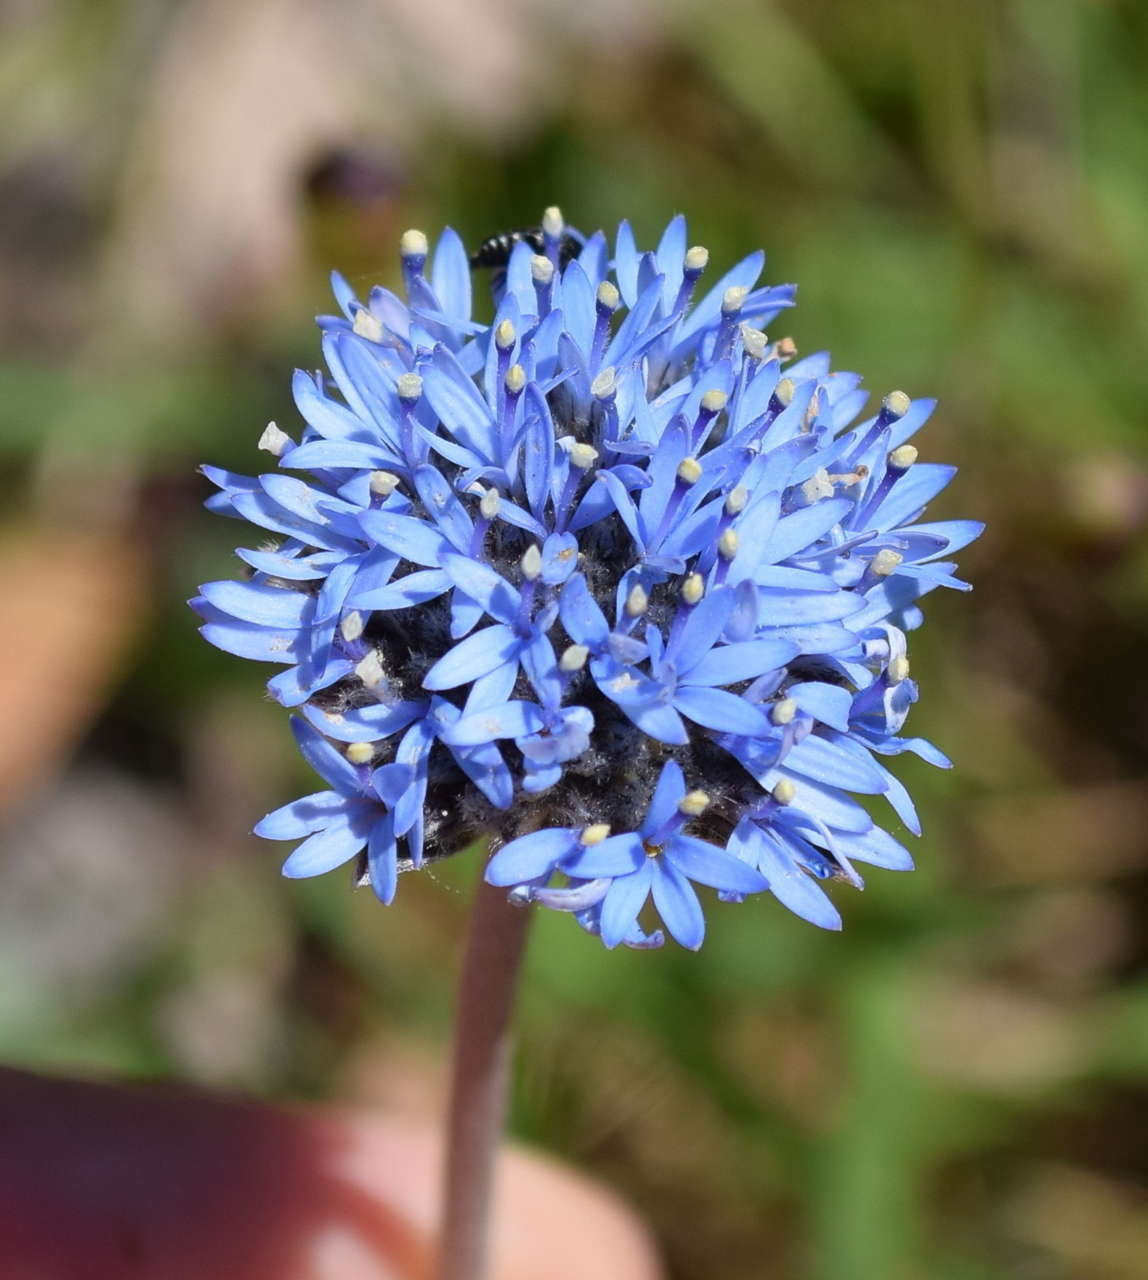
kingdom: Plantae
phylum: Tracheophyta
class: Magnoliopsida
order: Asterales
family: Goodeniaceae
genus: Brunonia
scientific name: Brunonia australis
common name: Blue pincushion
